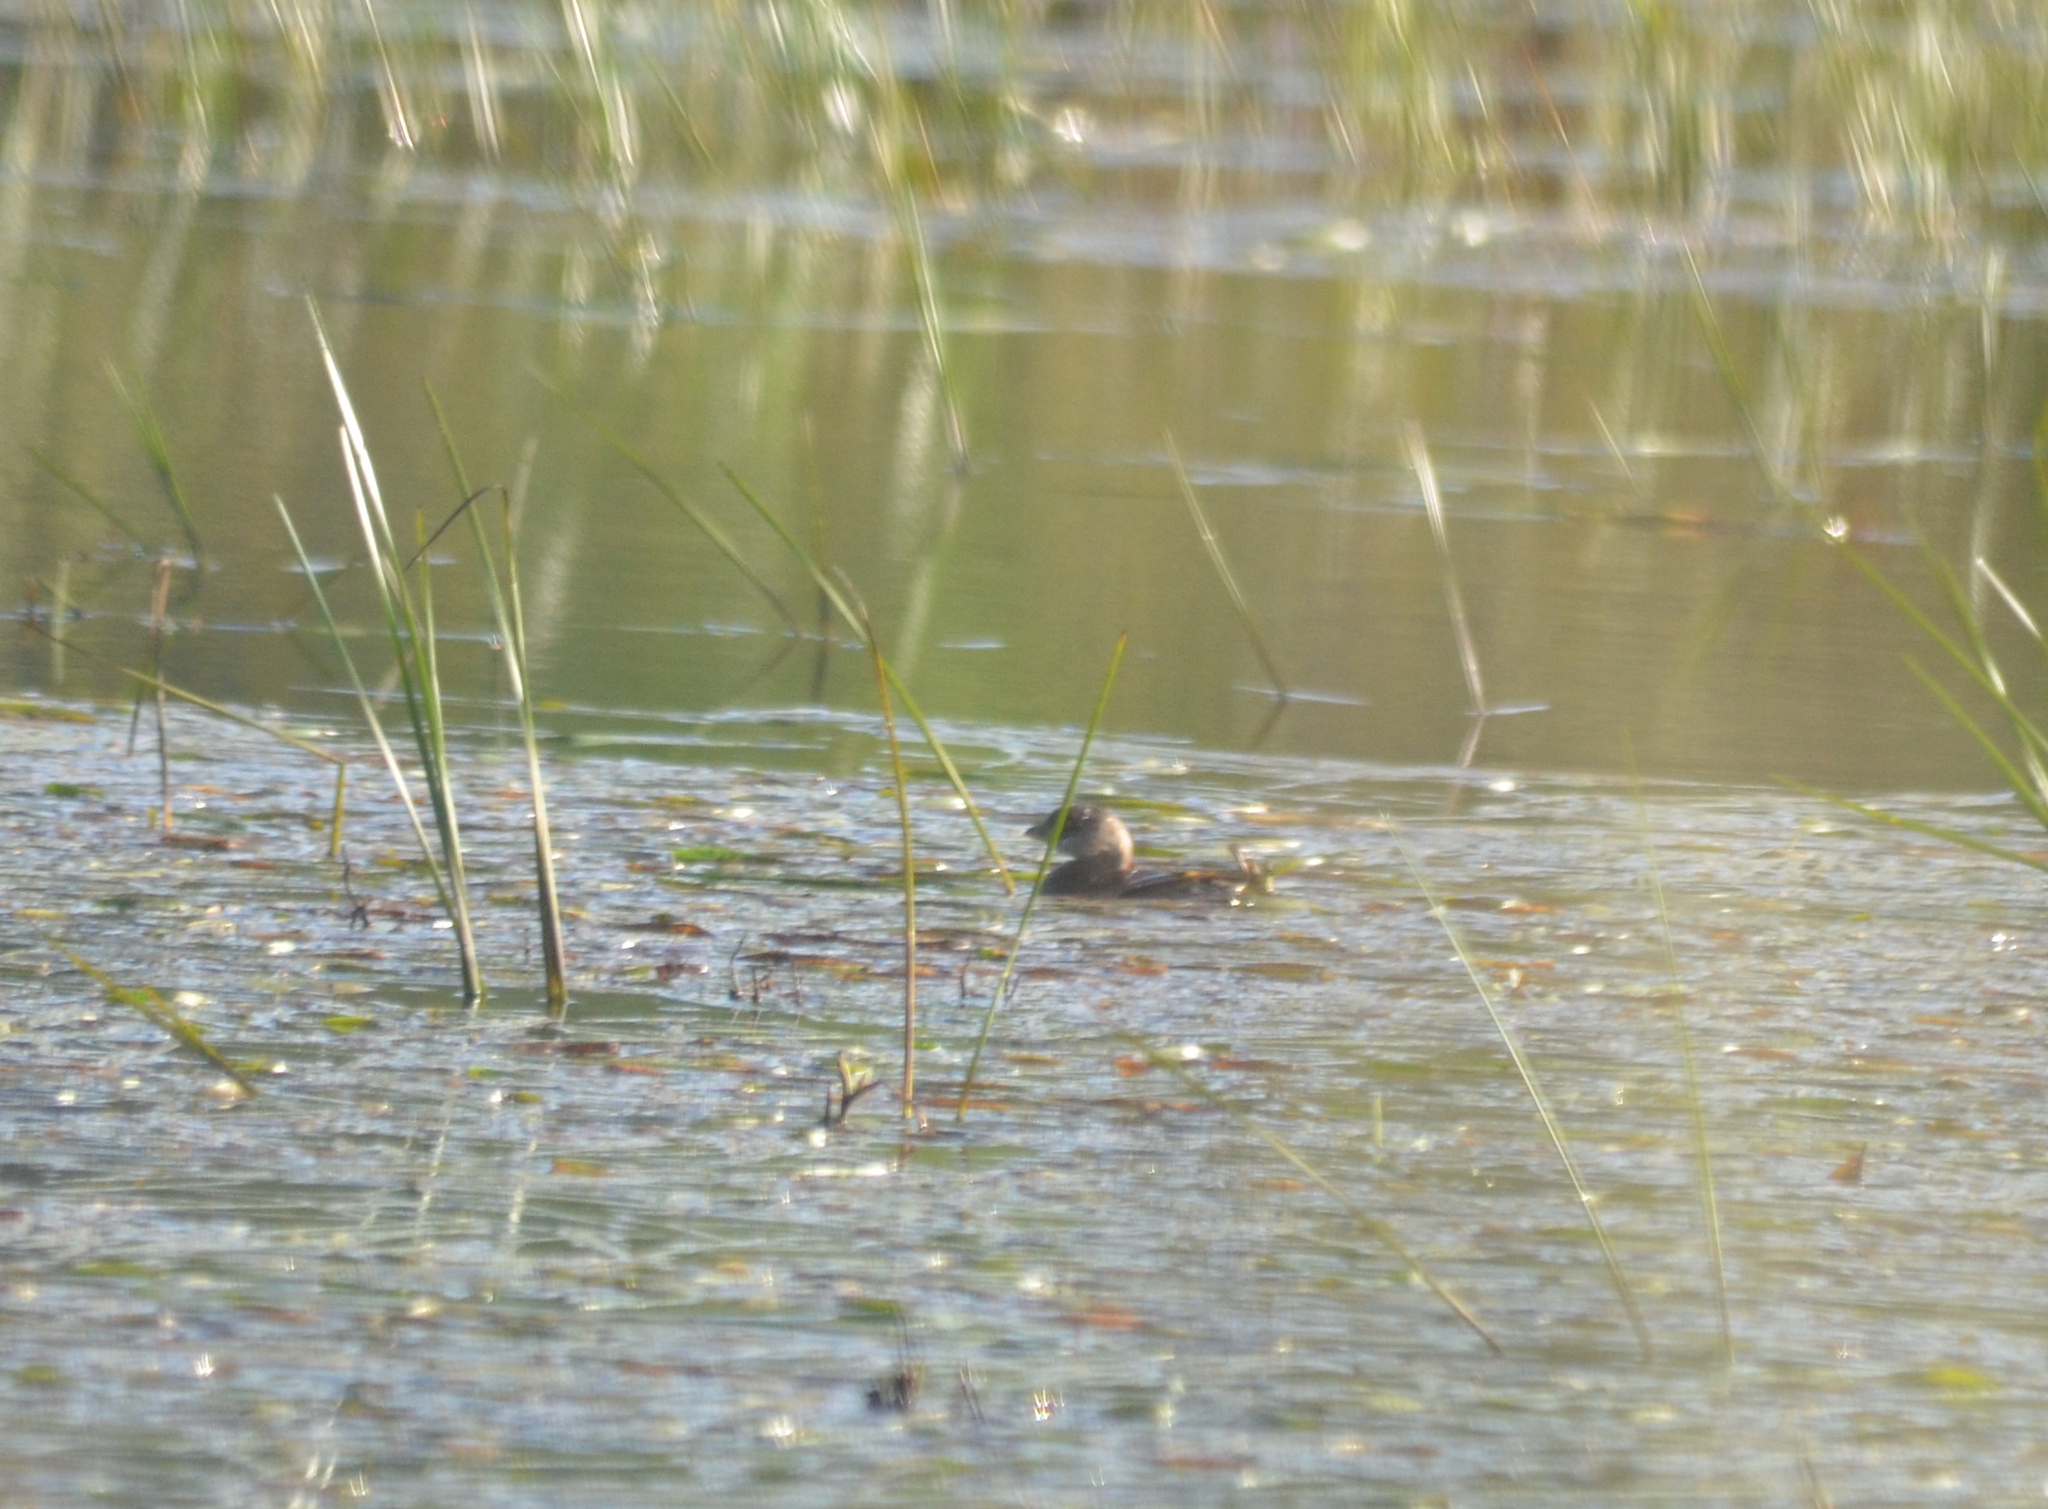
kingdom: Animalia
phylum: Chordata
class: Aves
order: Podicipediformes
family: Podicipedidae
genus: Podilymbus
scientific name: Podilymbus podiceps
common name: Pied-billed grebe
